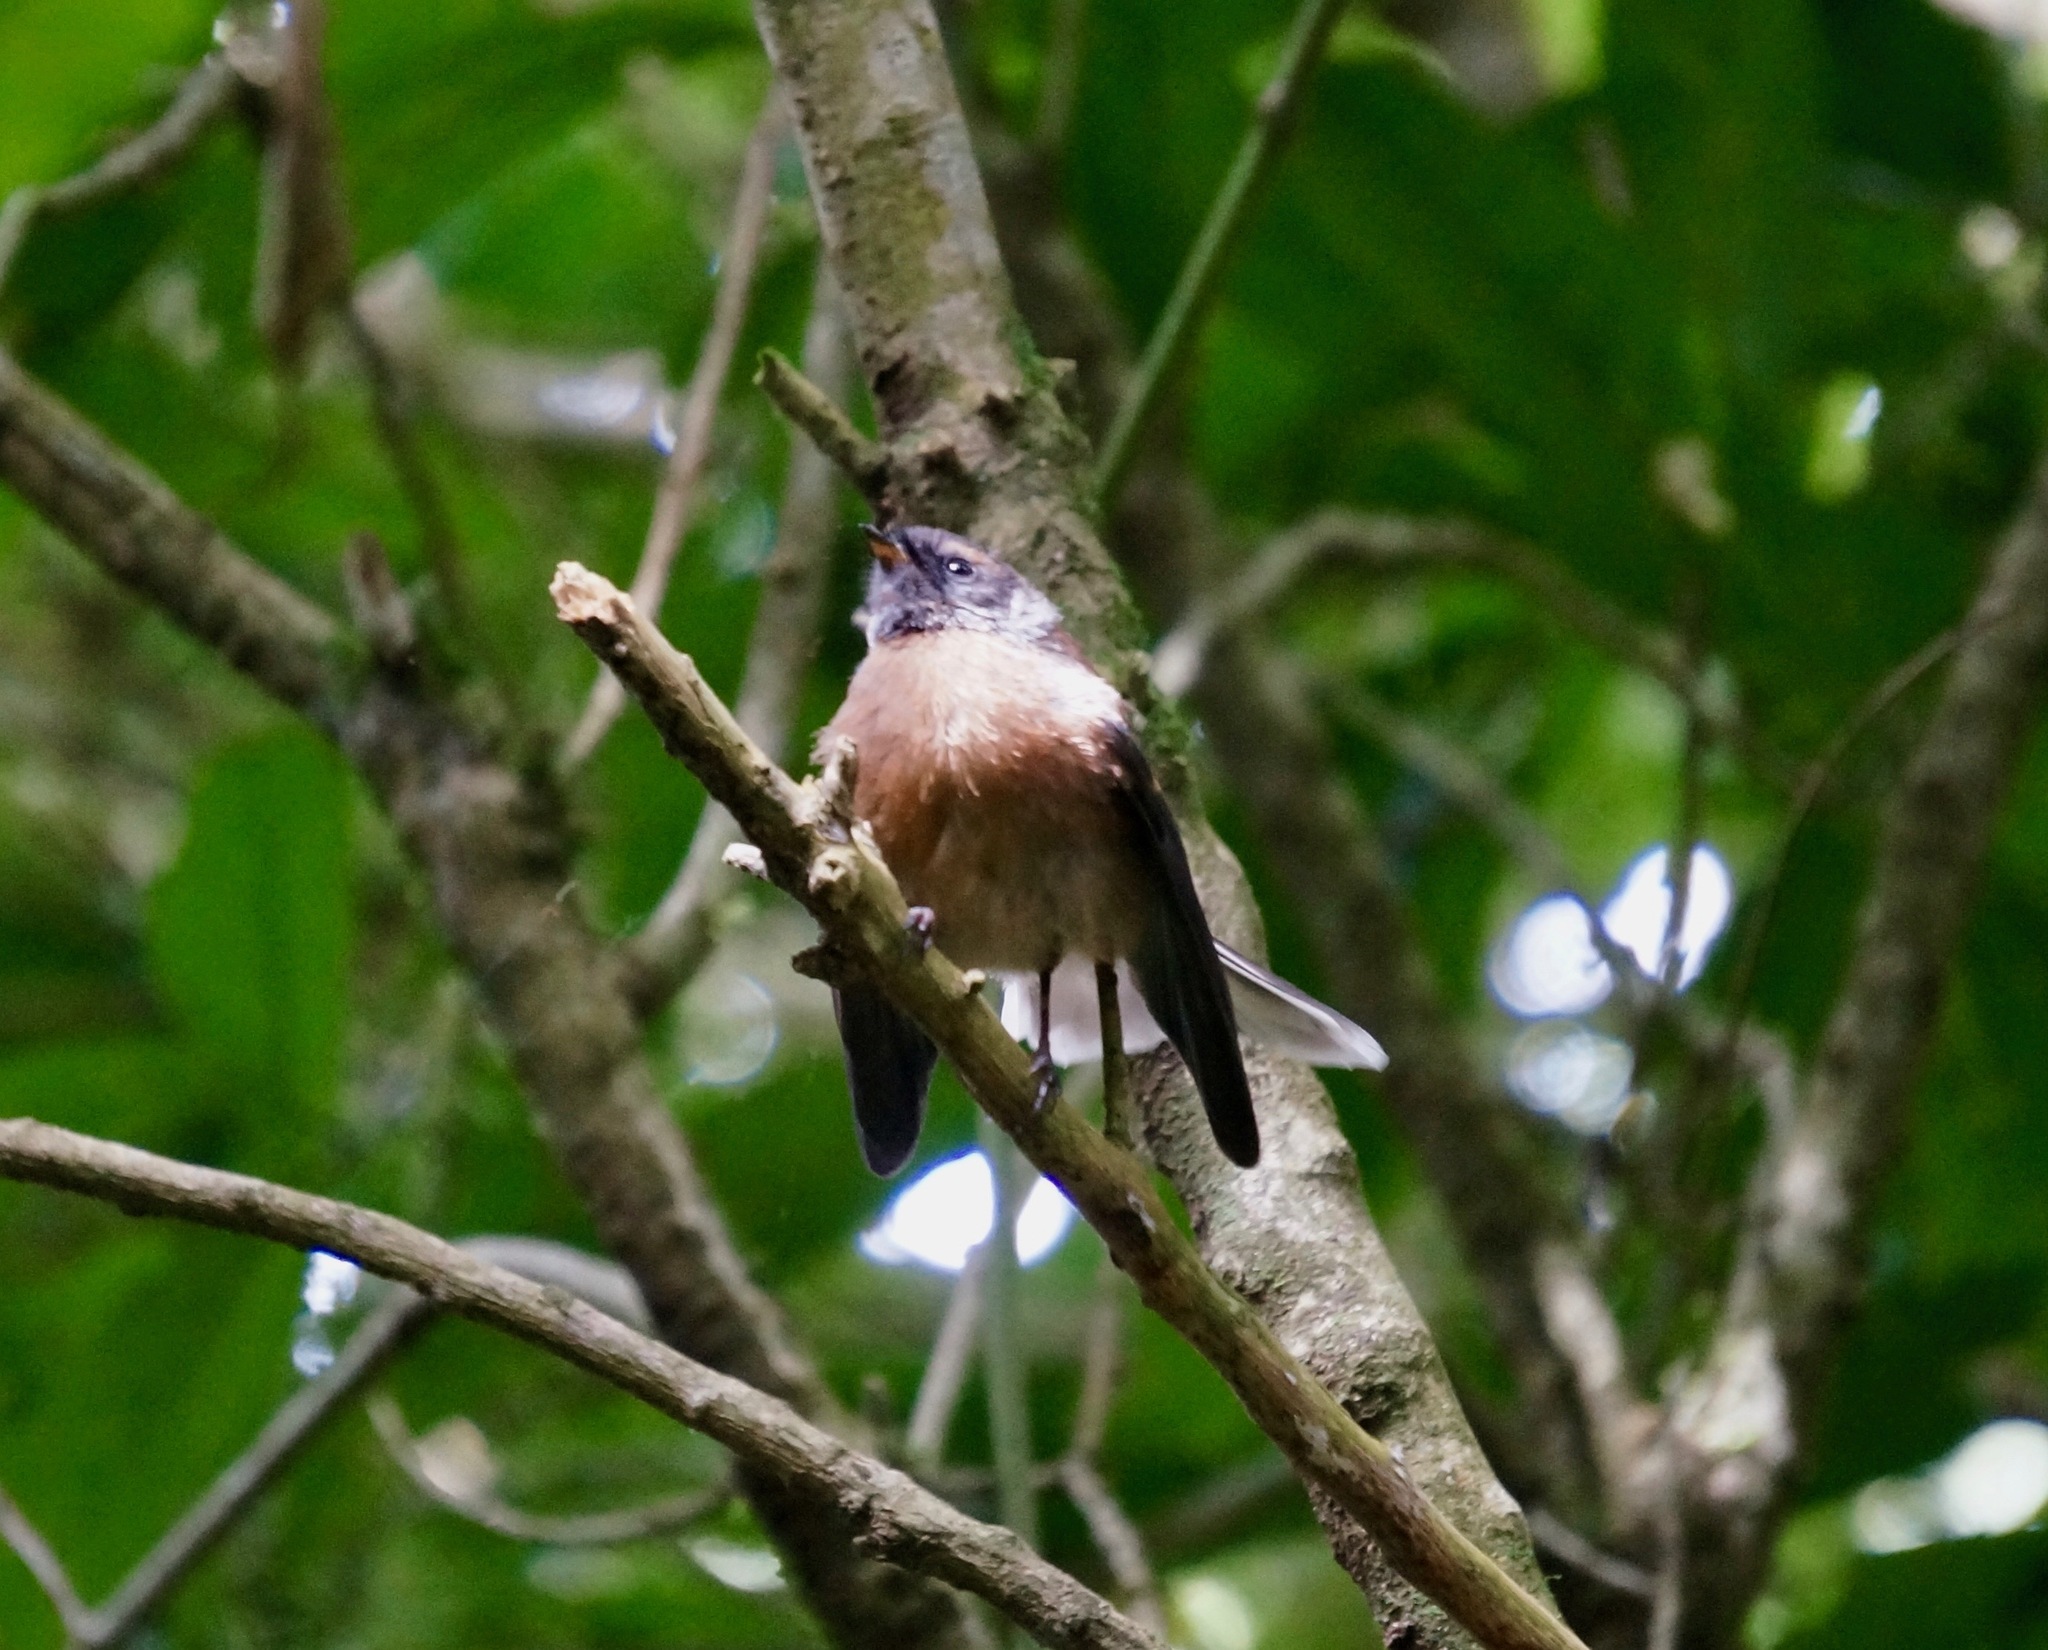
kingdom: Animalia
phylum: Chordata
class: Aves
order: Passeriformes
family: Rhipiduridae
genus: Rhipidura
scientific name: Rhipidura fuliginosa
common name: New zealand fantail
